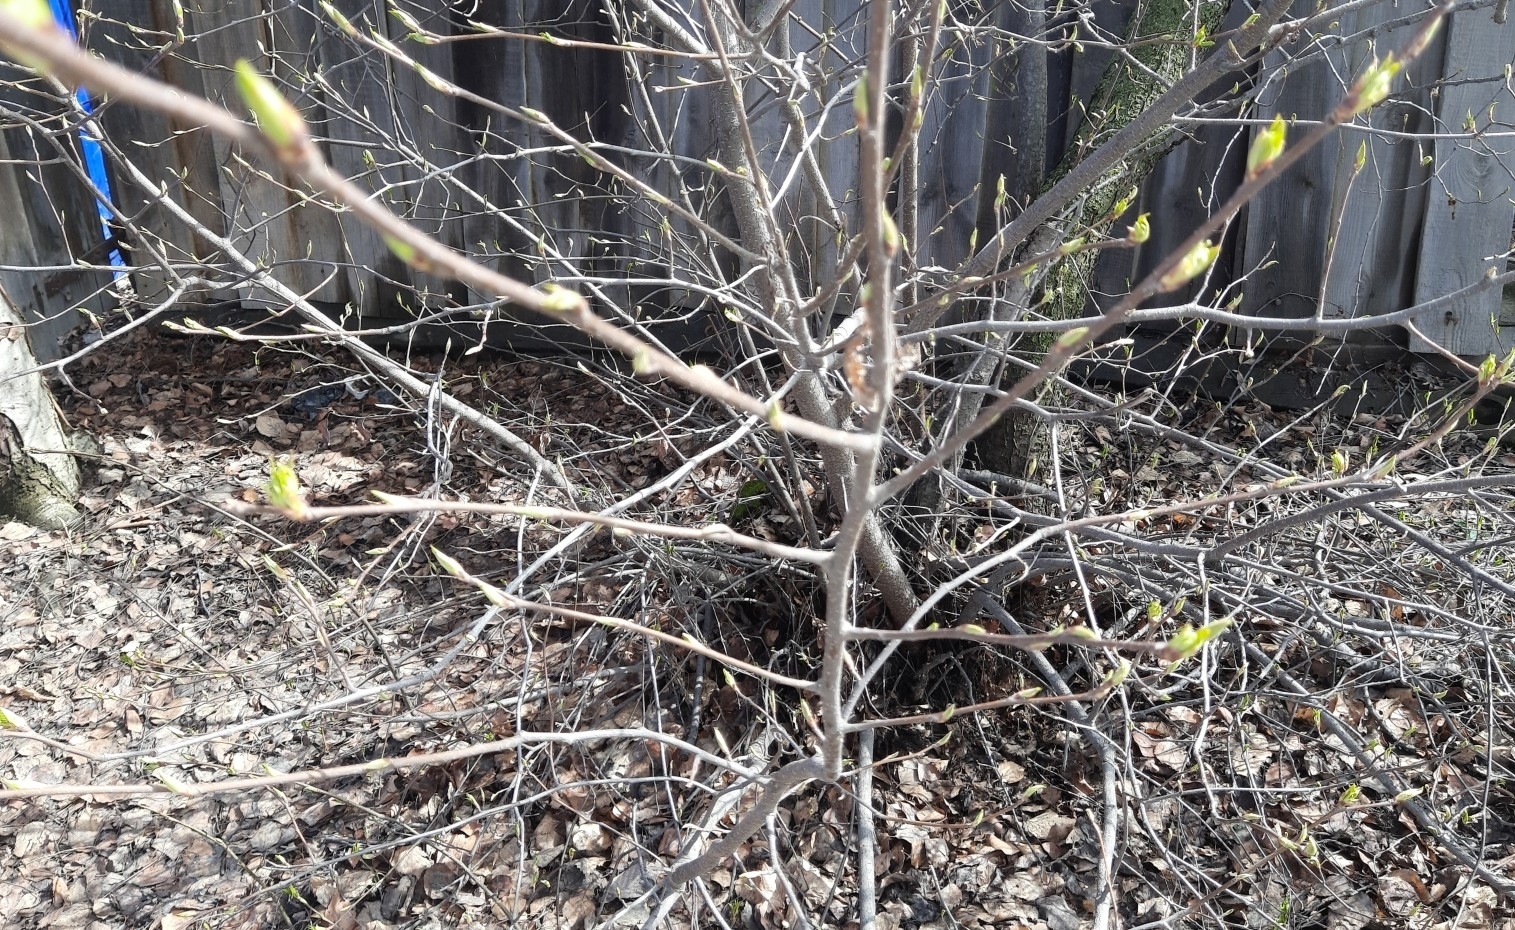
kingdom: Plantae
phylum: Tracheophyta
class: Magnoliopsida
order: Rosales
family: Rosaceae
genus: Prunus
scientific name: Prunus padus
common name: Bird cherry
